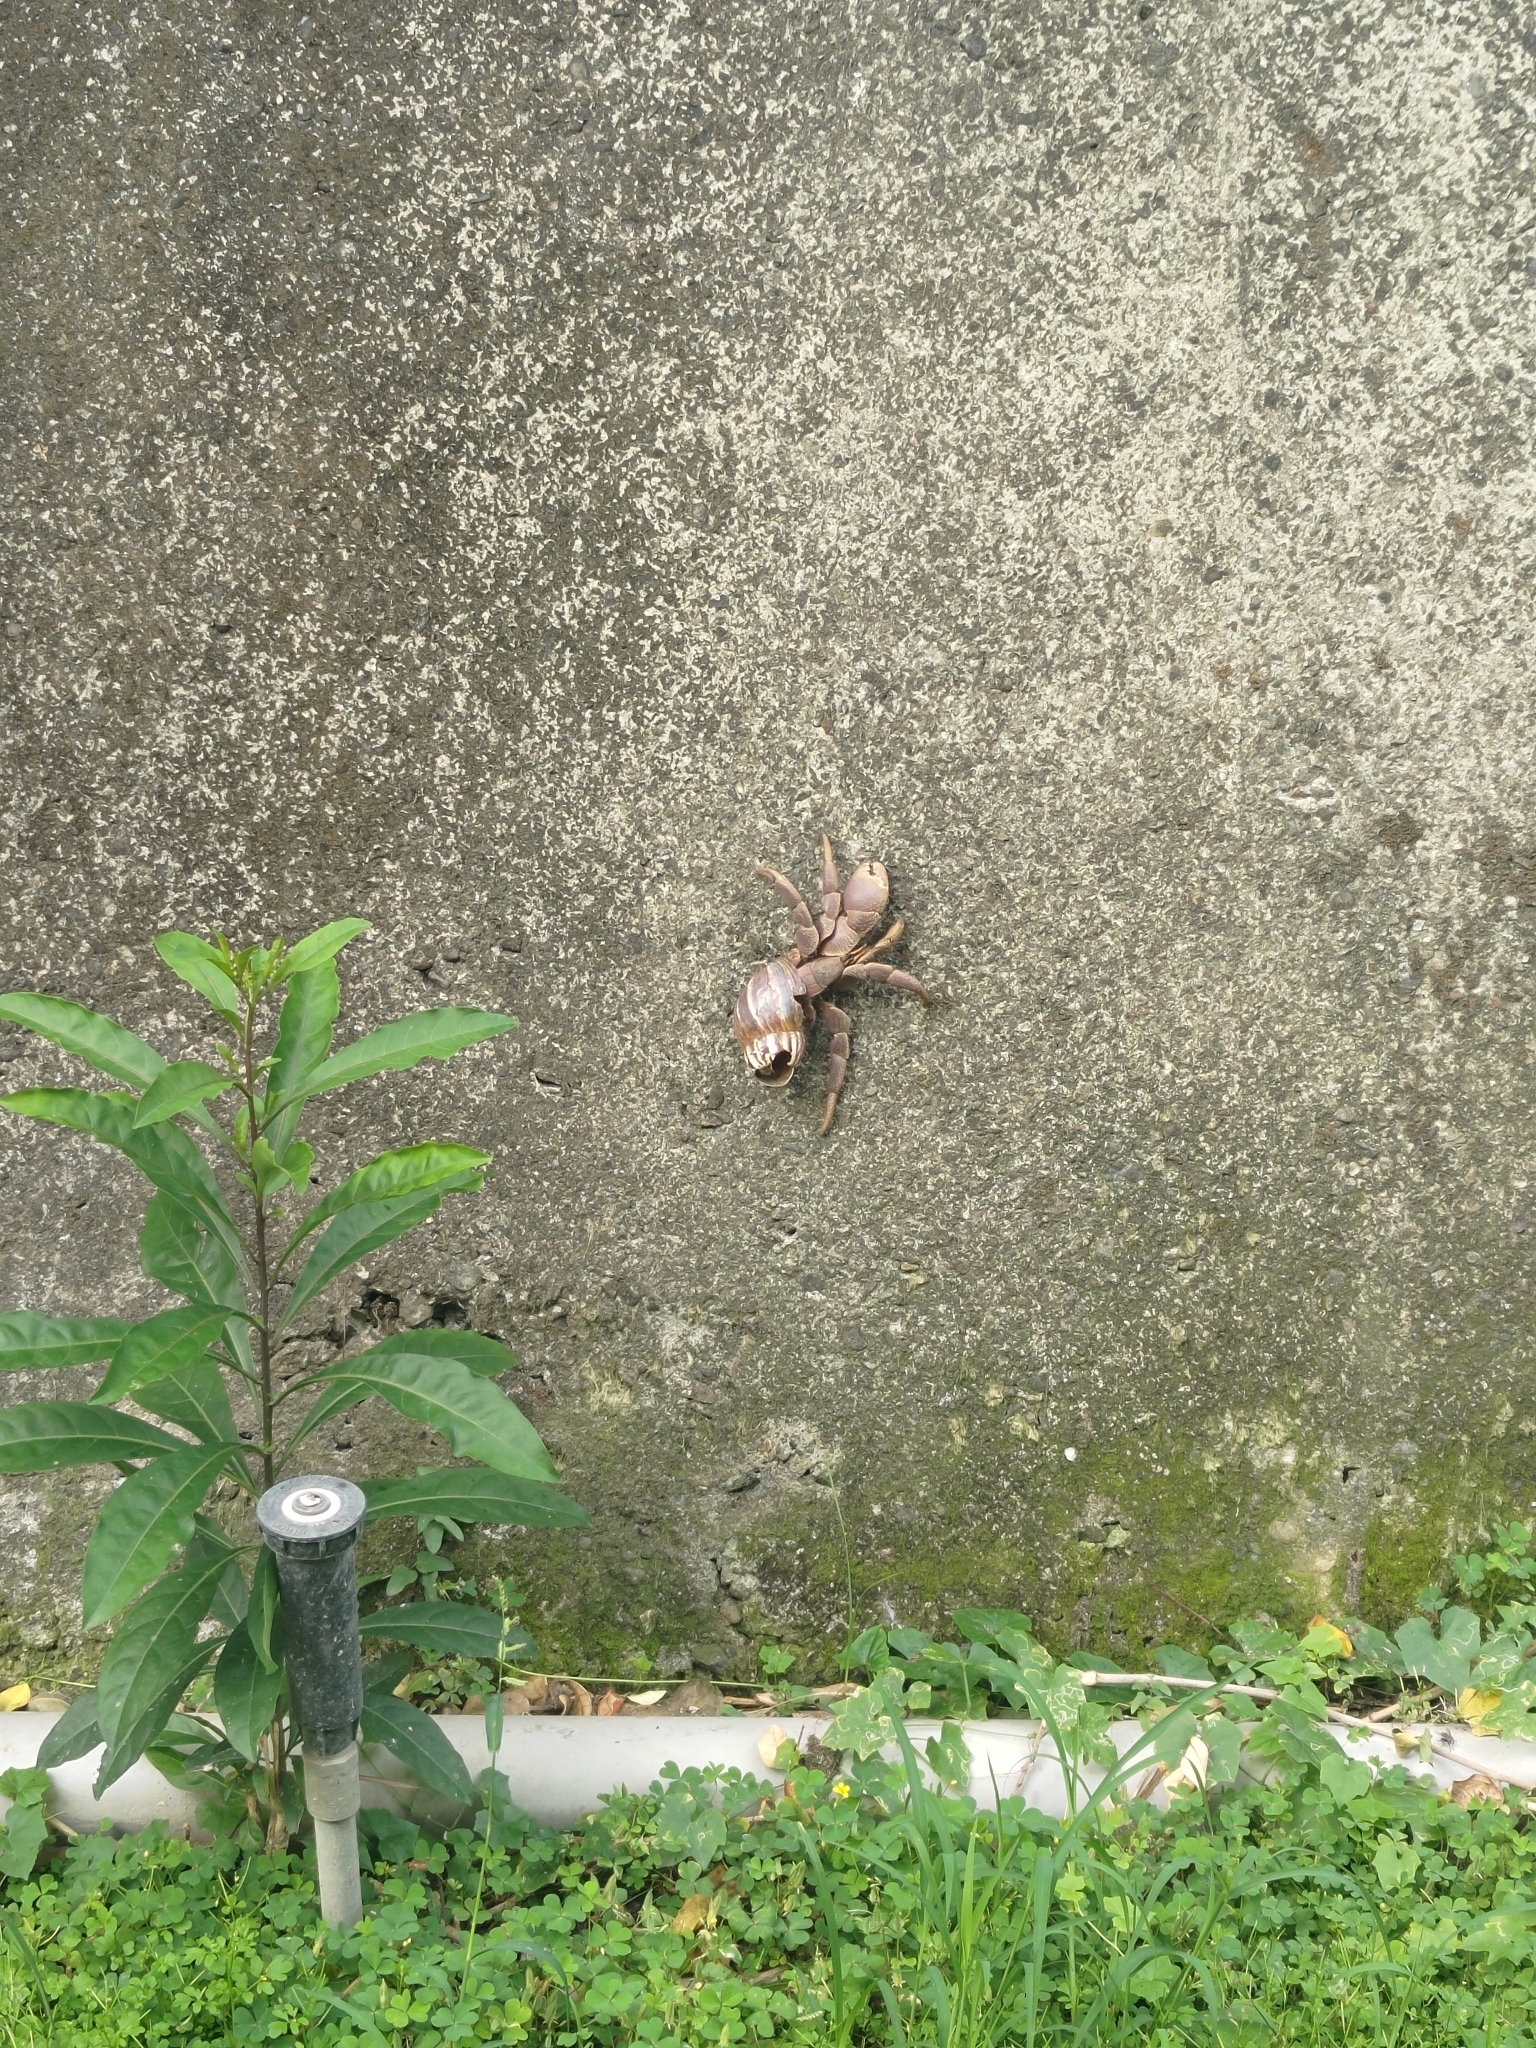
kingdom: Animalia
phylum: Arthropoda
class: Malacostraca
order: Decapoda
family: Coenobitidae
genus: Coenobita
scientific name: Coenobita brevimanus
